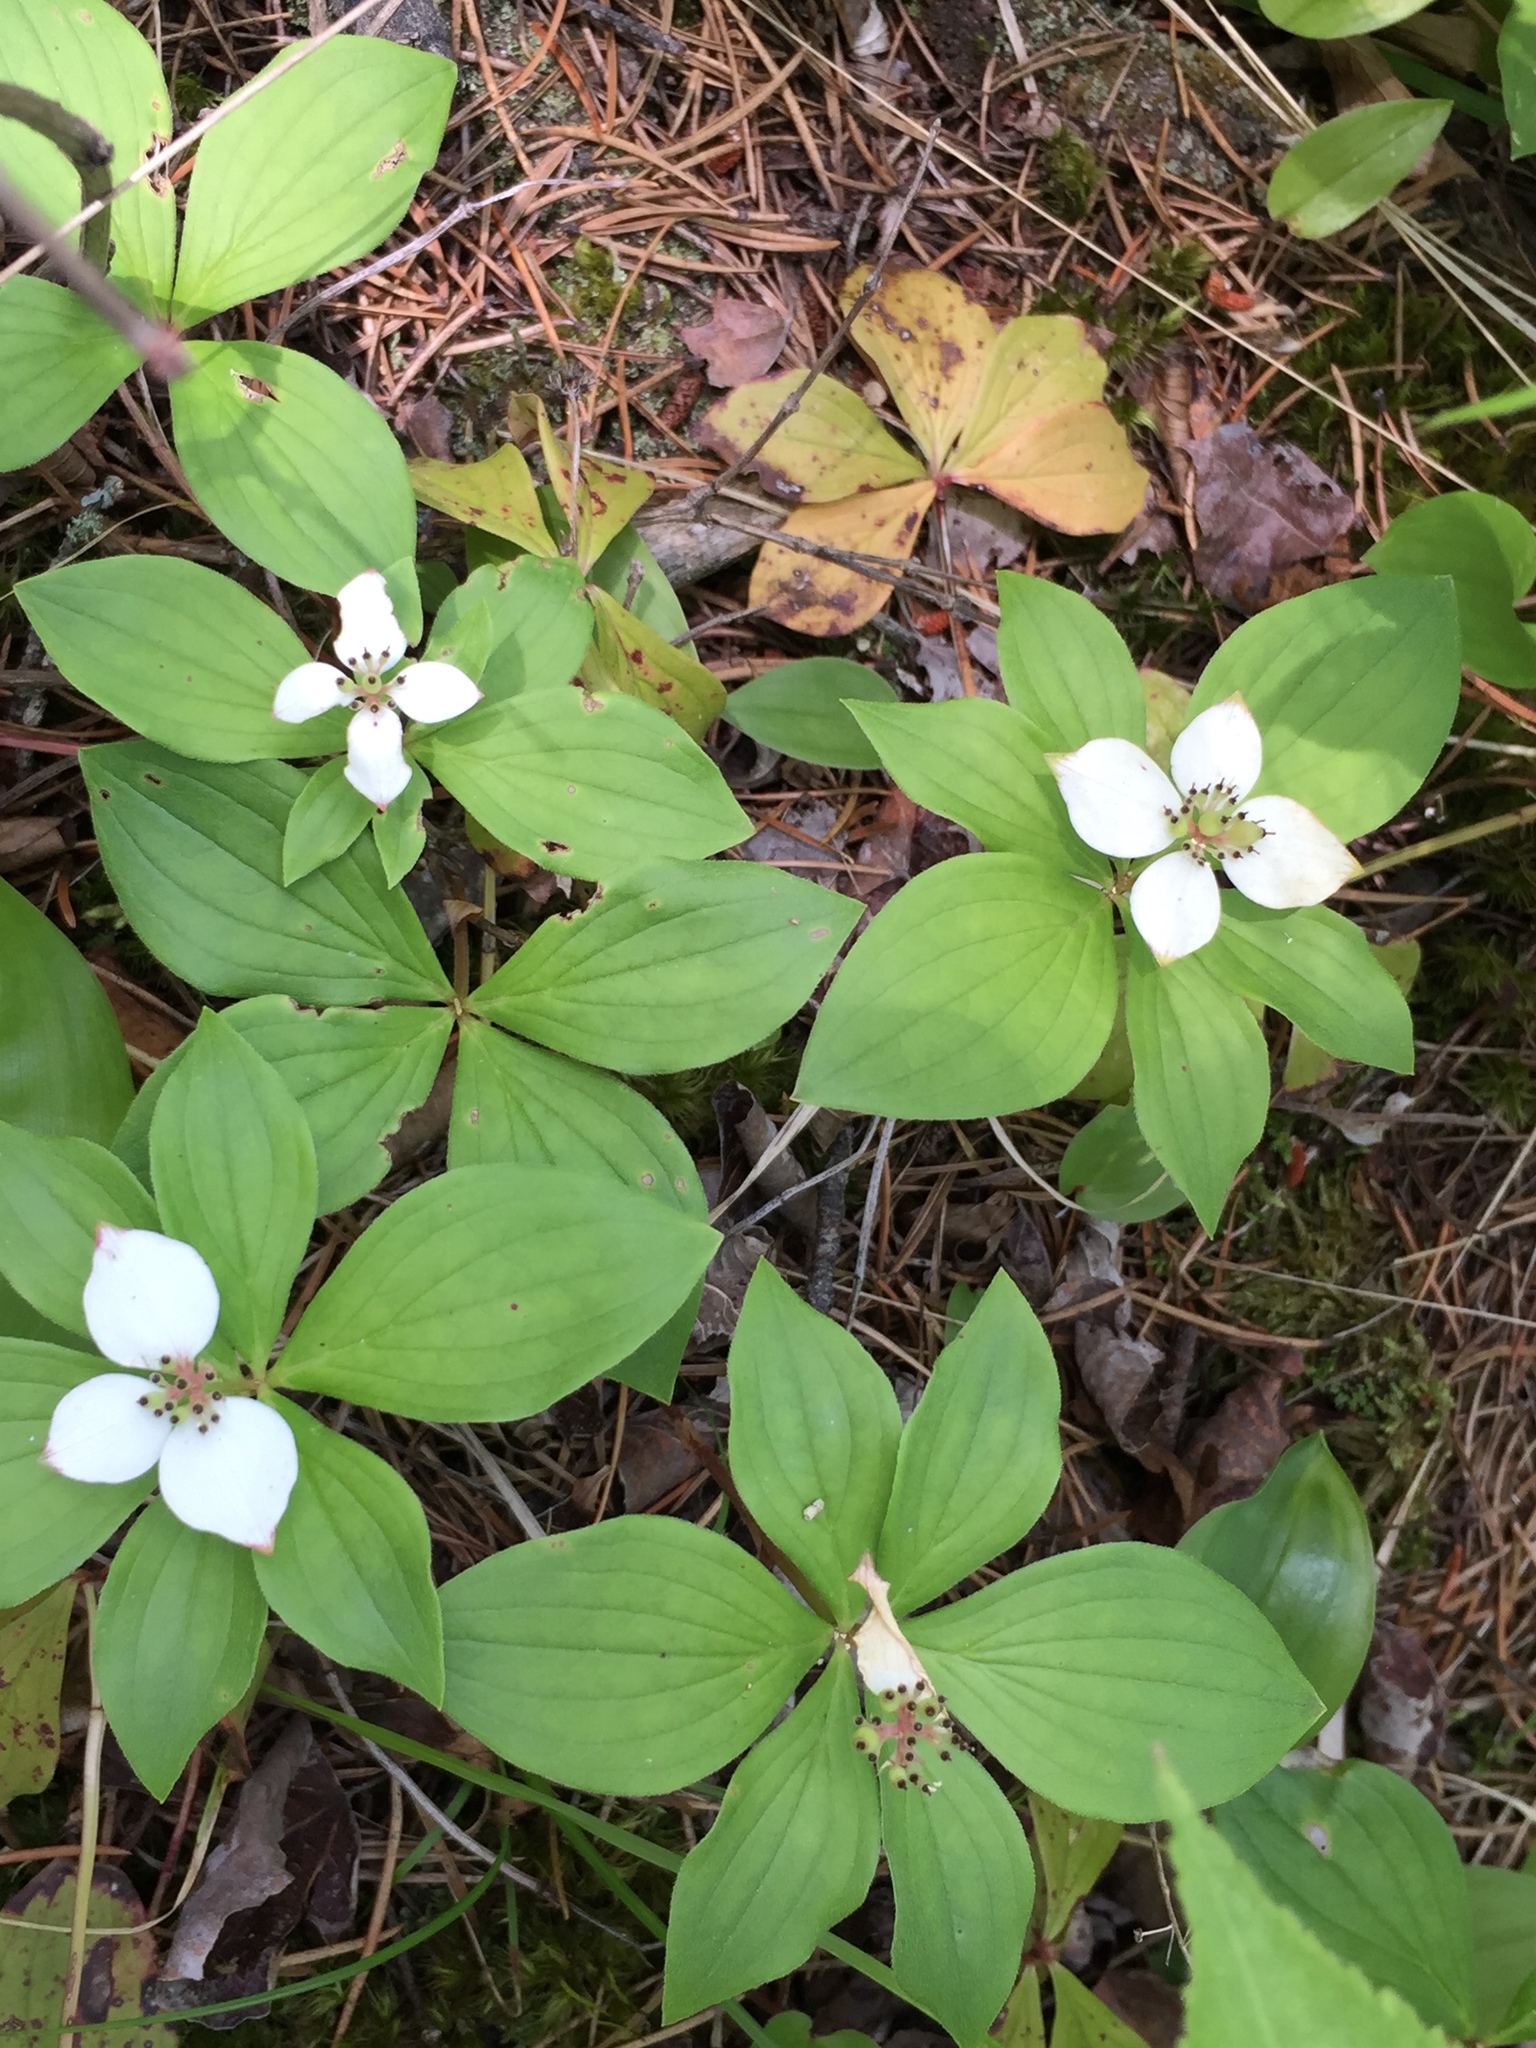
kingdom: Plantae
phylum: Tracheophyta
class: Magnoliopsida
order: Cornales
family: Cornaceae
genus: Cornus
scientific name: Cornus canadensis
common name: Creeping dogwood
